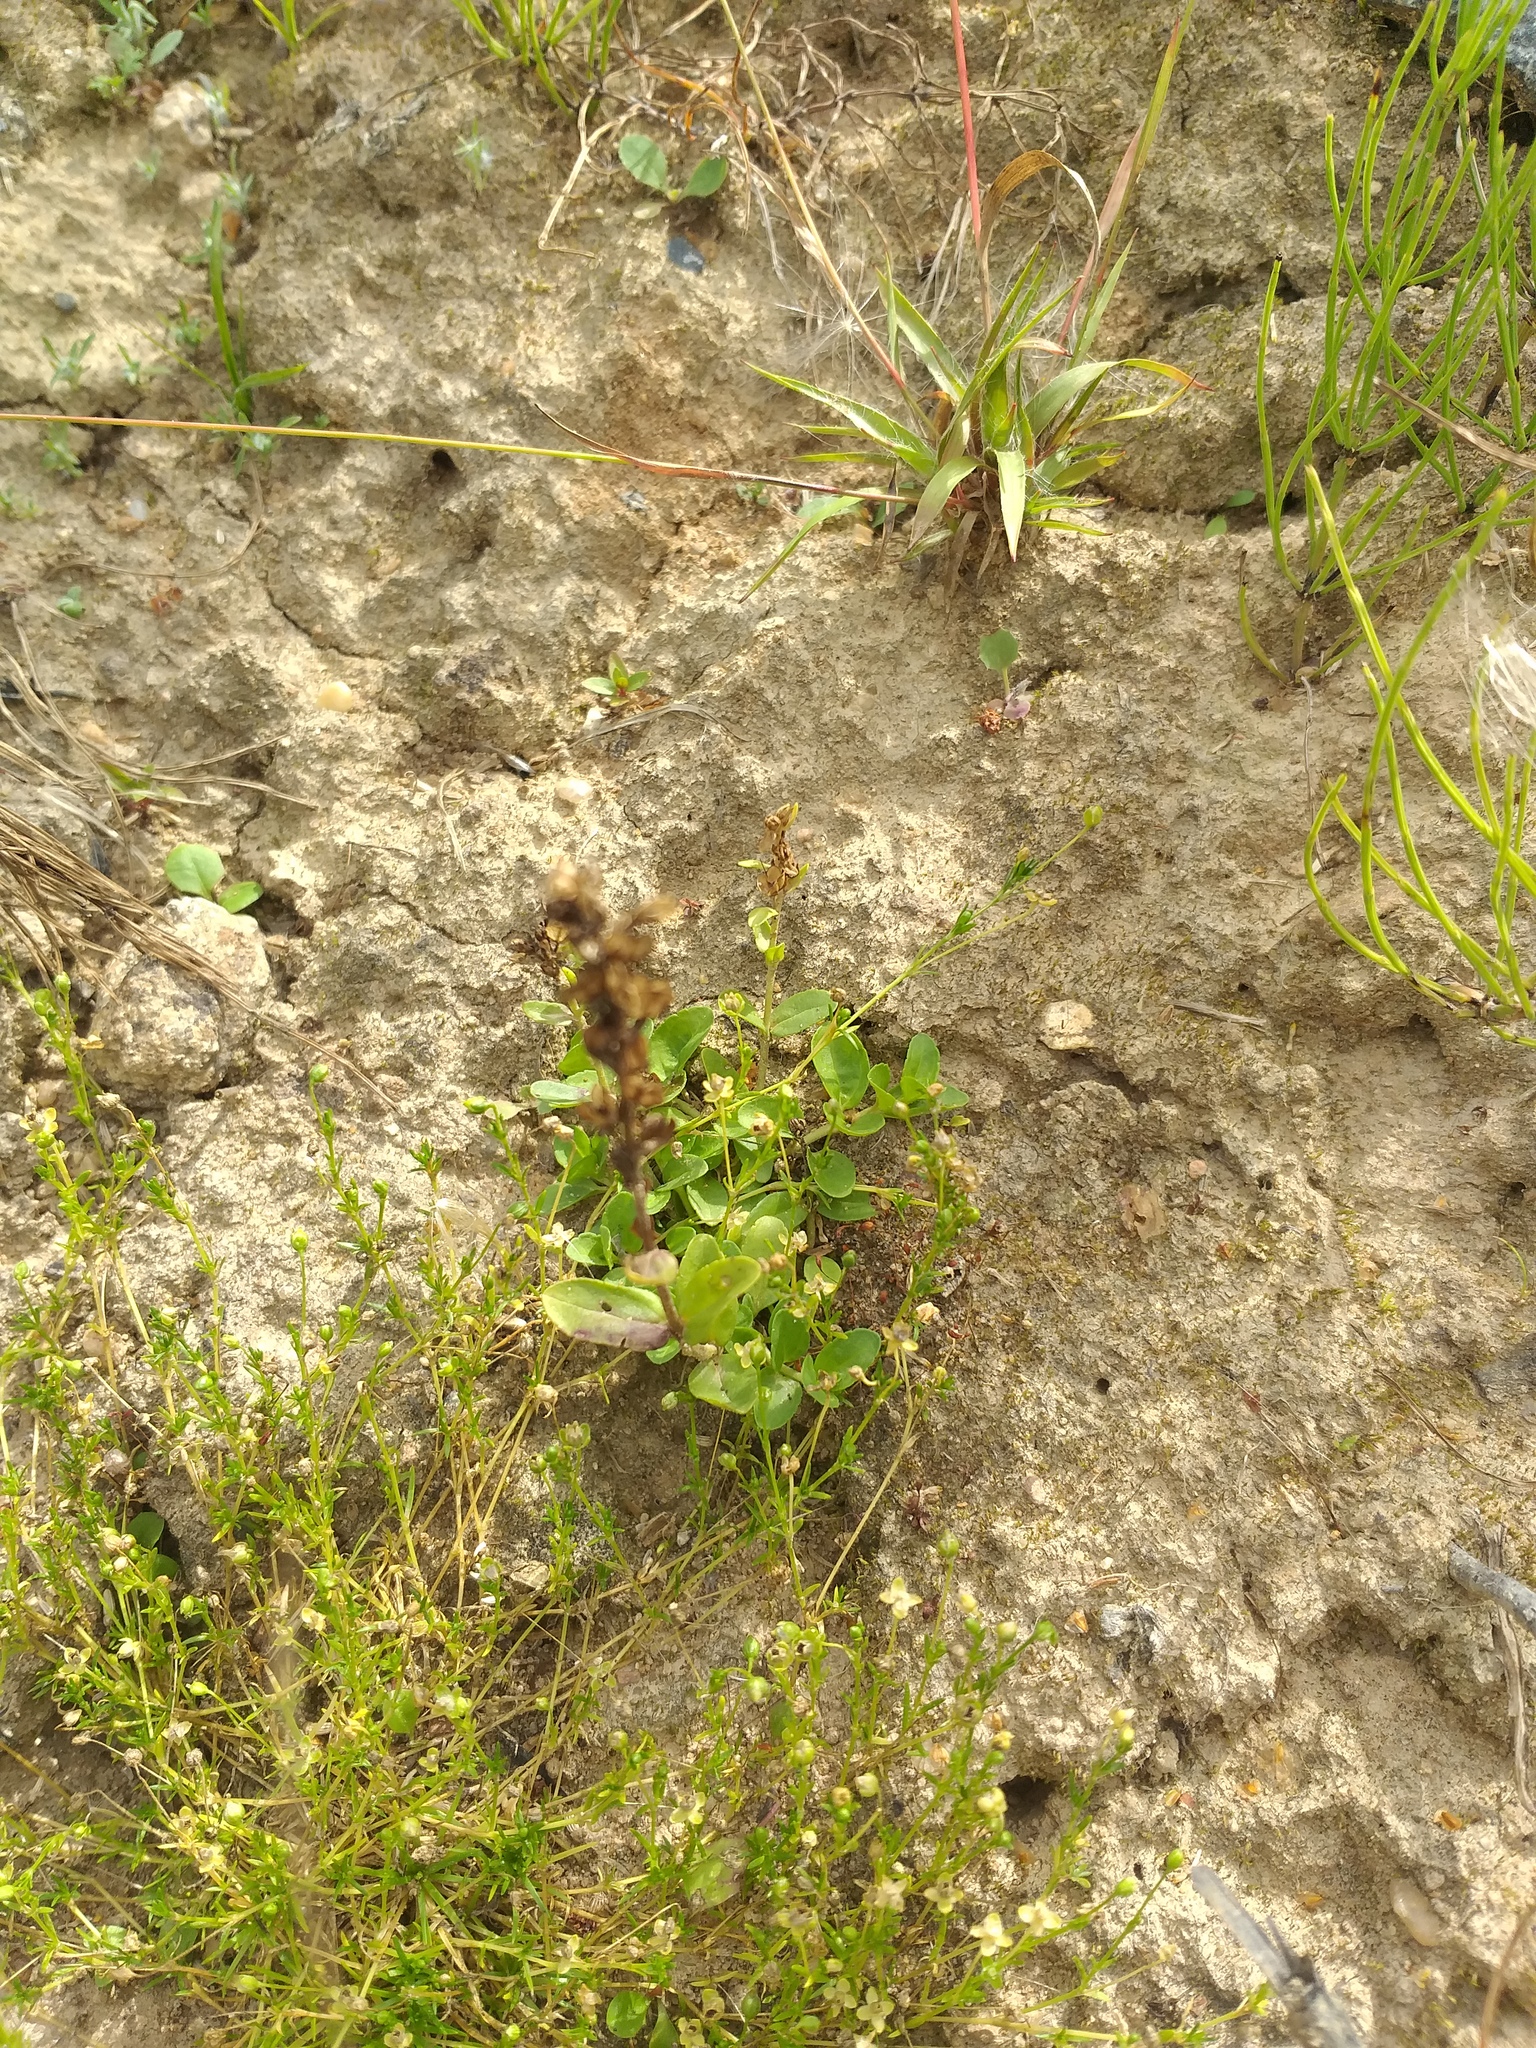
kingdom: Plantae
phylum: Tracheophyta
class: Magnoliopsida
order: Lamiales
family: Plantaginaceae
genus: Veronica
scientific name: Veronica serpyllifolia
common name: Thyme-leaved speedwell
